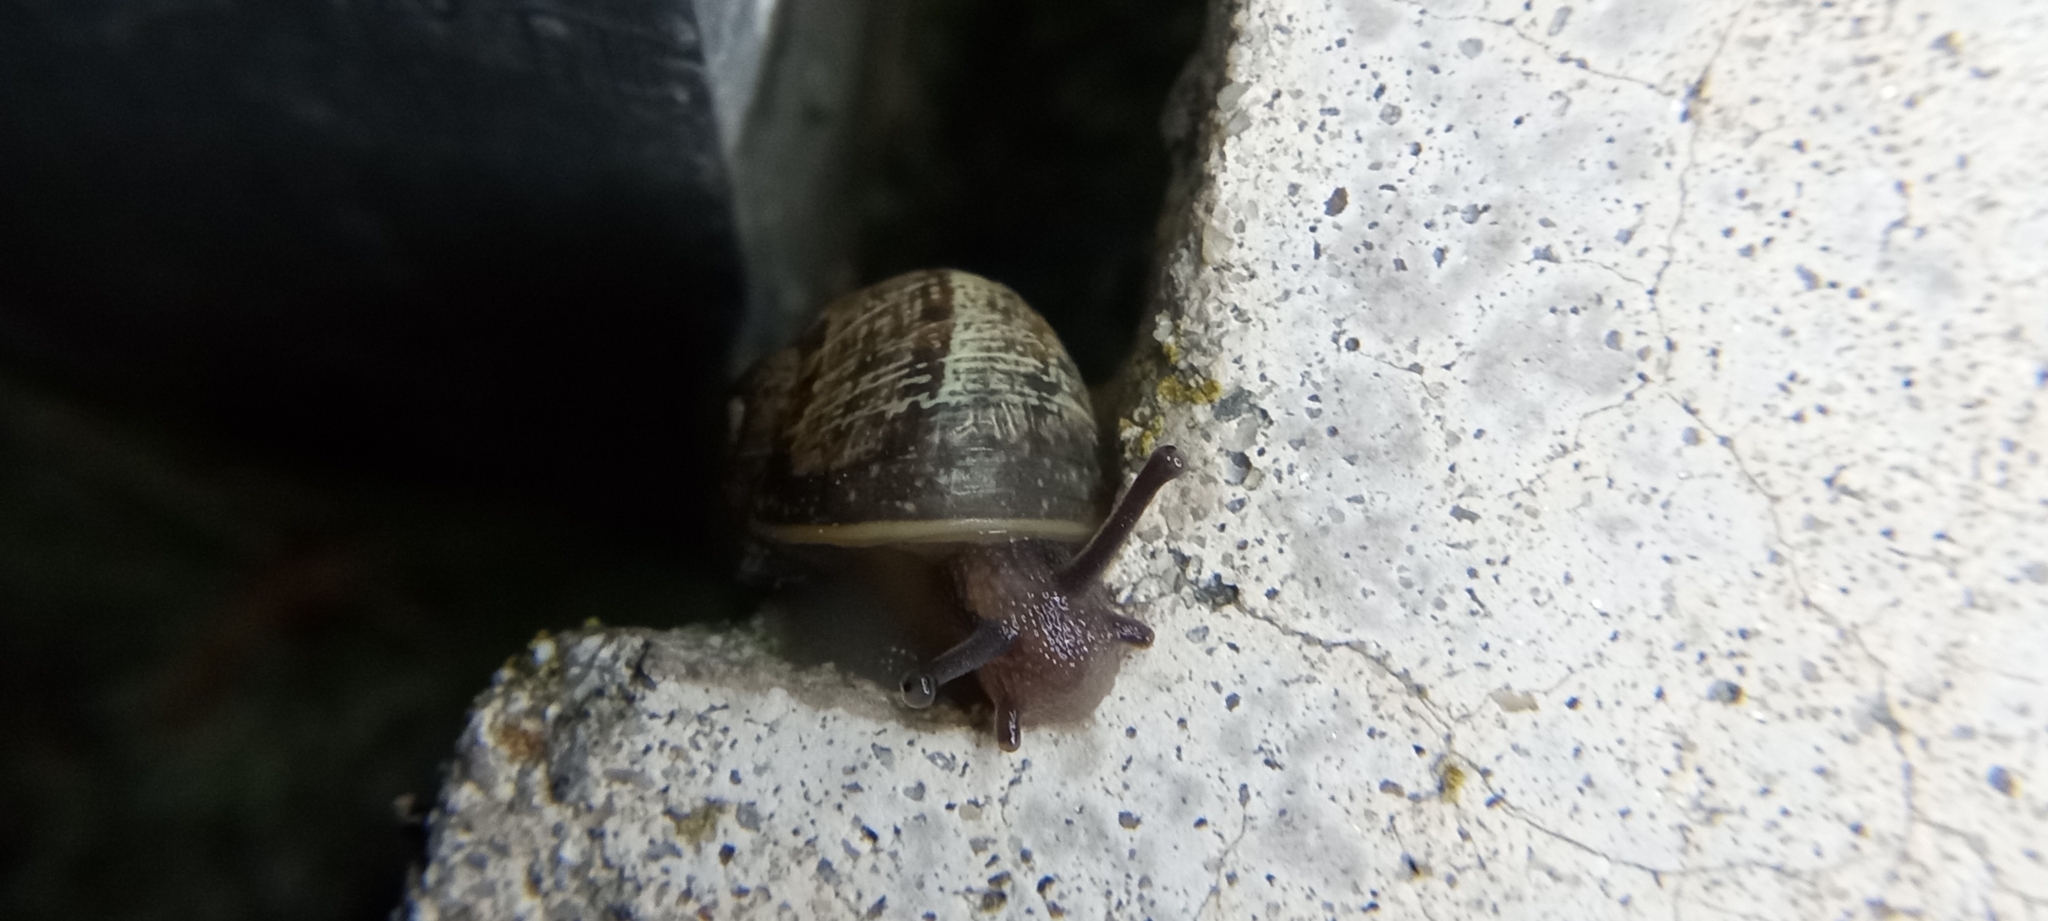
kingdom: Animalia
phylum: Mollusca
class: Gastropoda
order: Stylommatophora
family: Helicidae
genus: Cornu
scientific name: Cornu aspersum
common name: Brown garden snail
